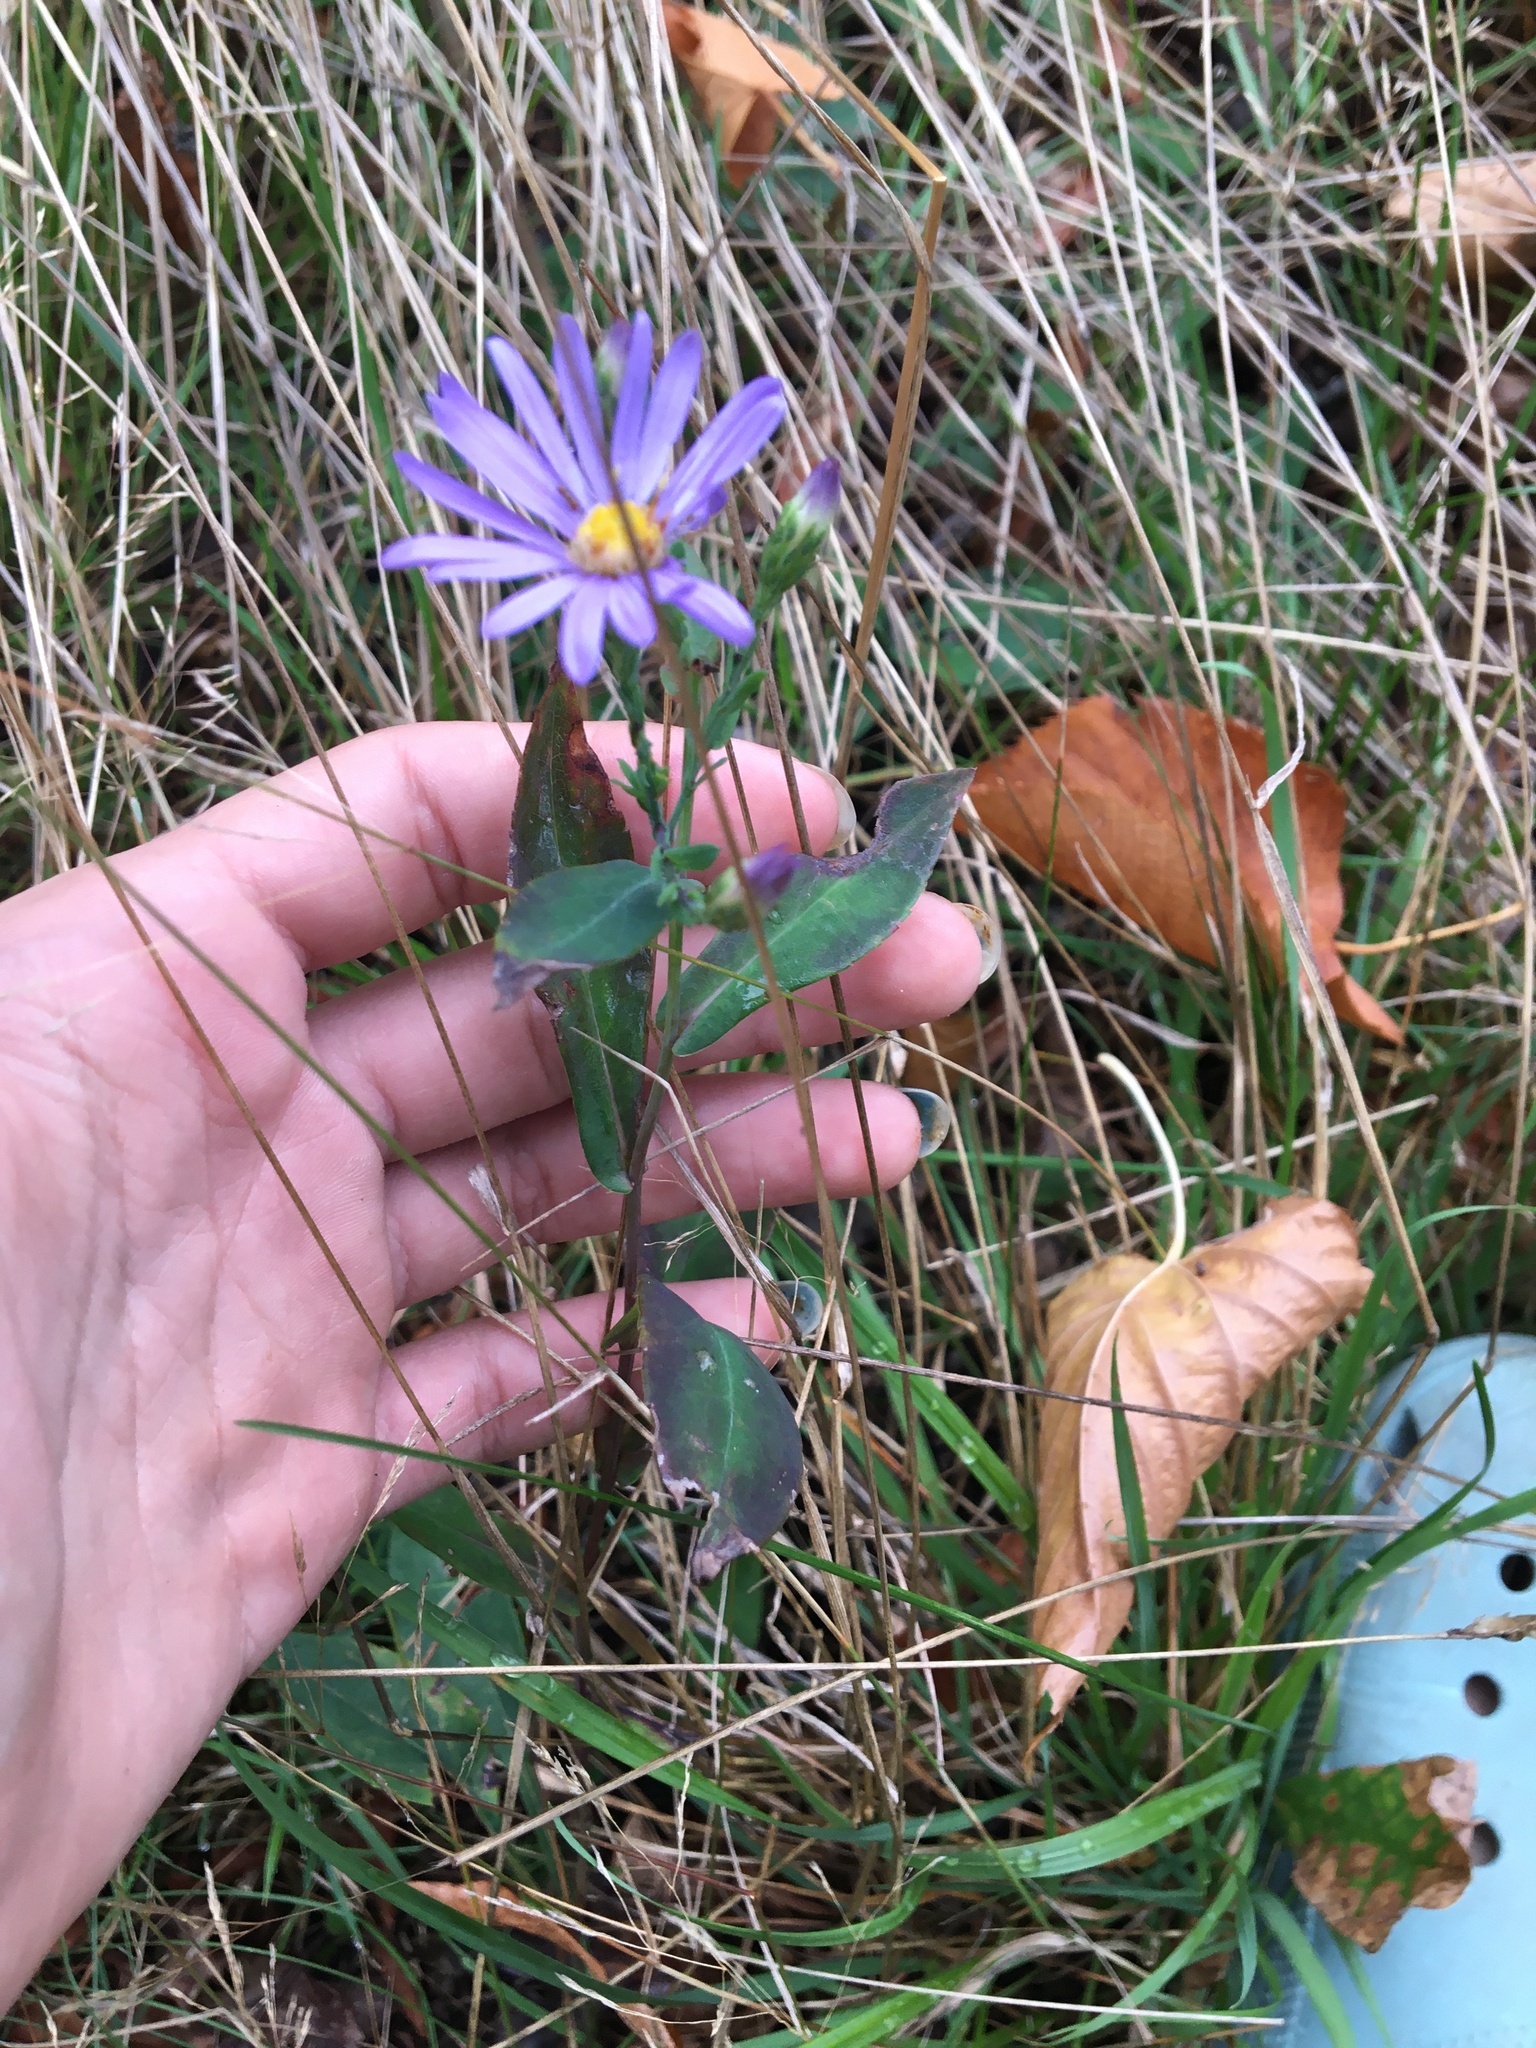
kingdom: Plantae
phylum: Tracheophyta
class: Magnoliopsida
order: Asterales
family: Asteraceae
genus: Symphyotrichum
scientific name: Symphyotrichum laeve
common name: Glaucous aster
